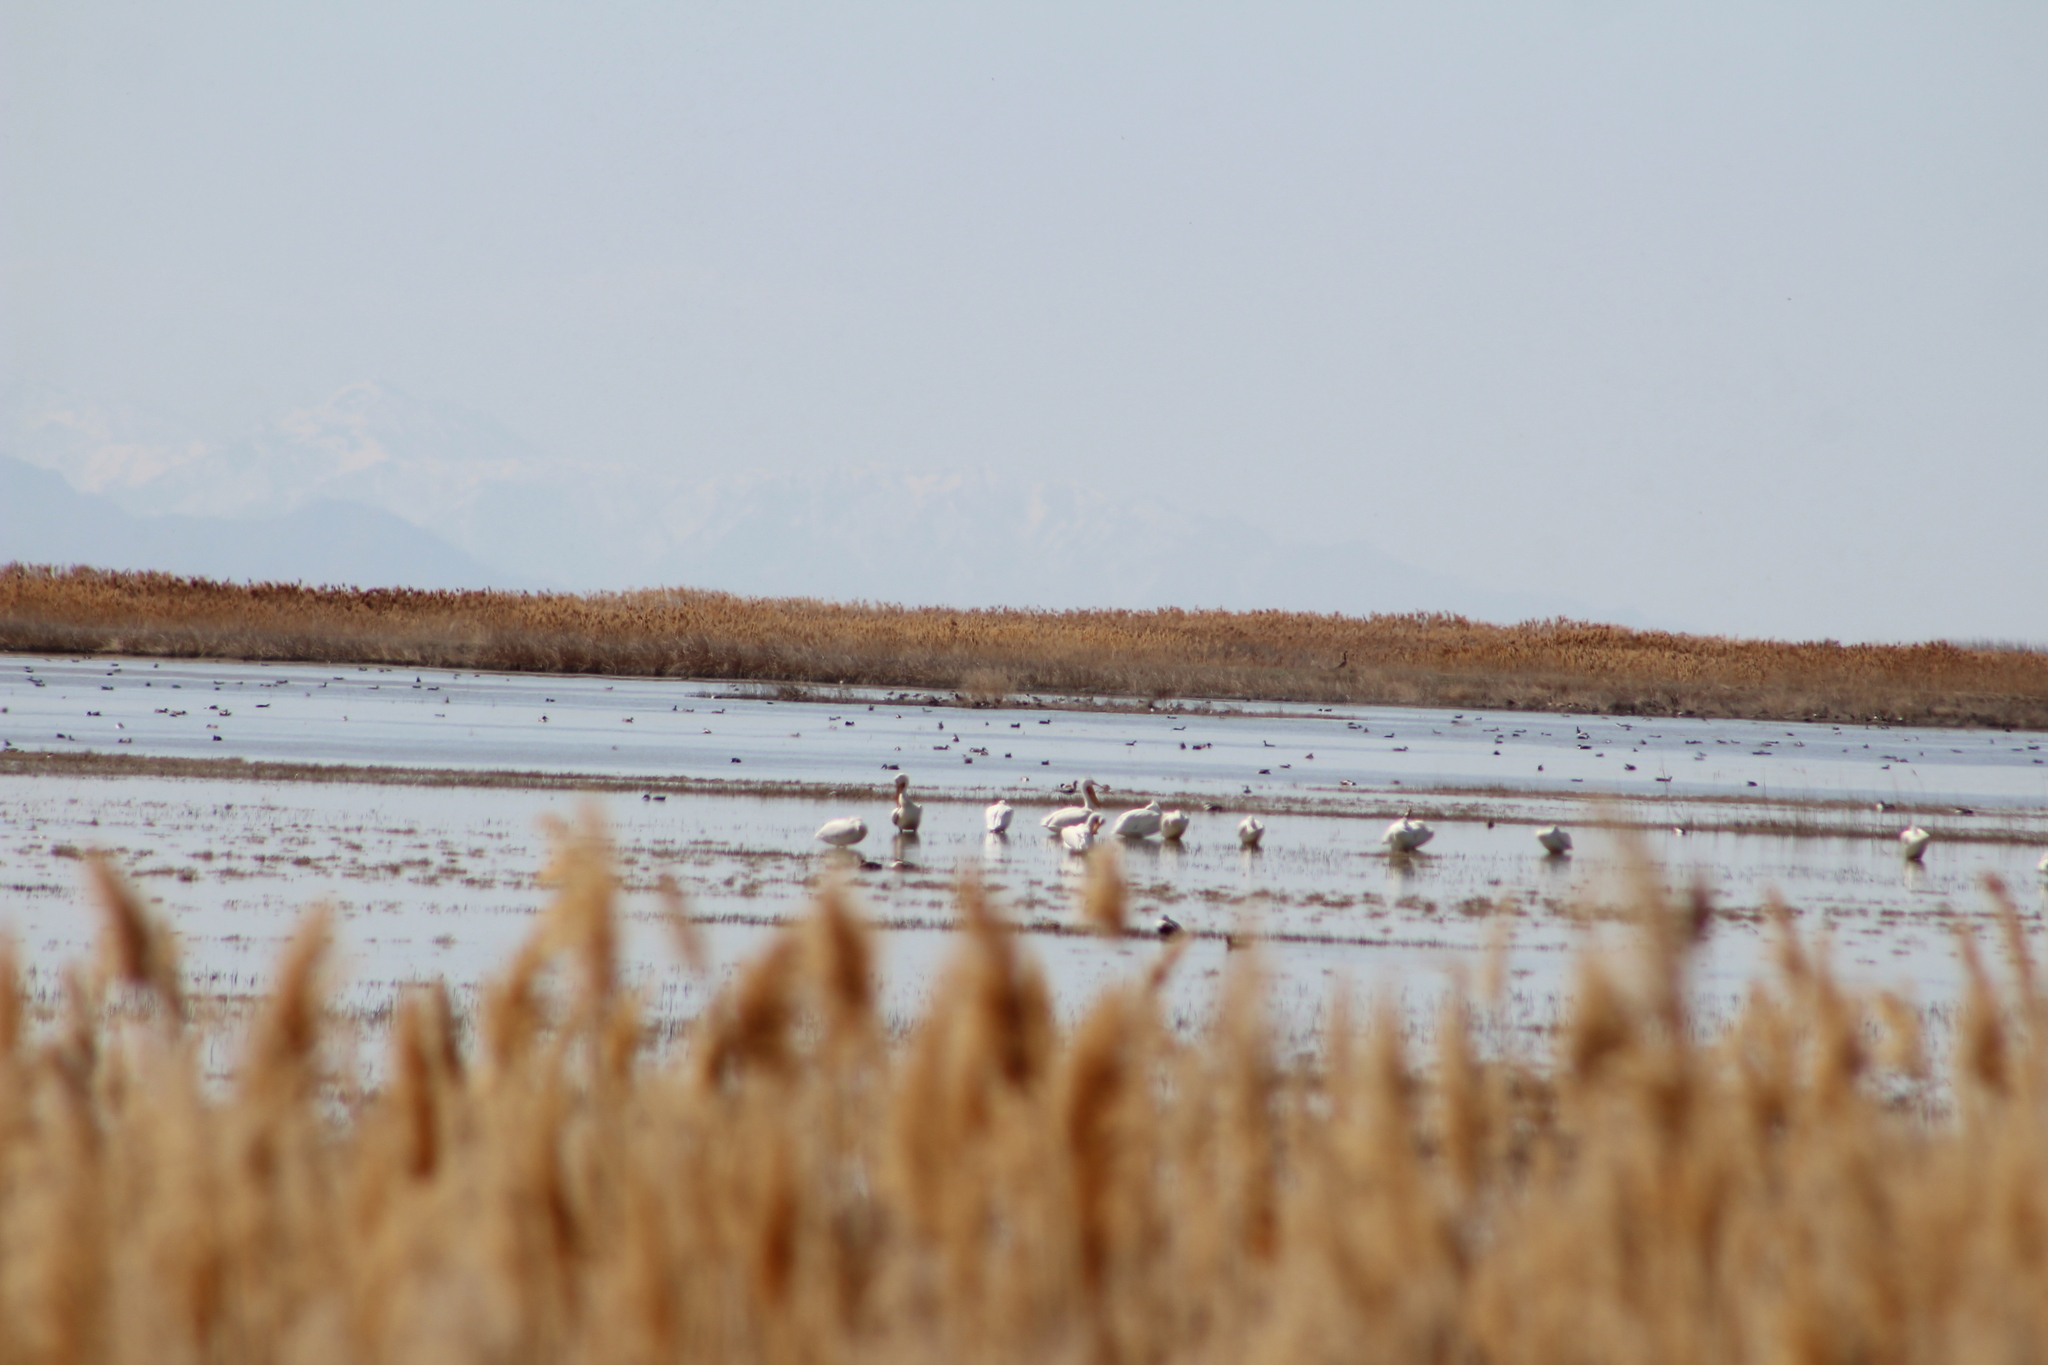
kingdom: Animalia
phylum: Chordata
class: Aves
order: Pelecaniformes
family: Pelecanidae
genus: Pelecanus
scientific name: Pelecanus erythrorhynchos
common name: American white pelican
